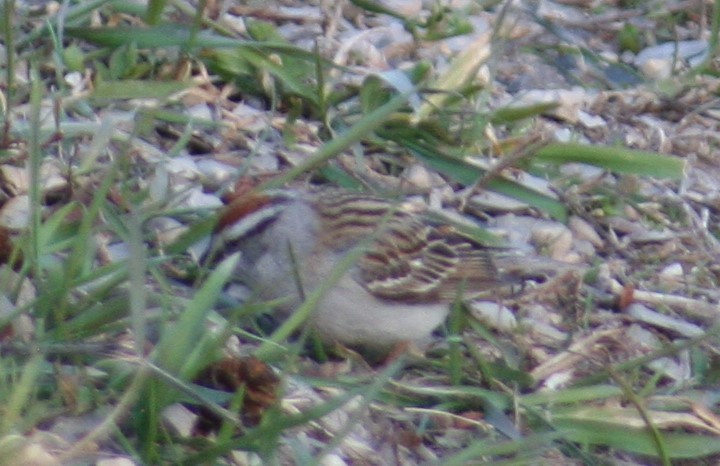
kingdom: Animalia
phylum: Chordata
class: Aves
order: Passeriformes
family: Passerellidae
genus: Spizella
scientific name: Spizella passerina
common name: Chipping sparrow
